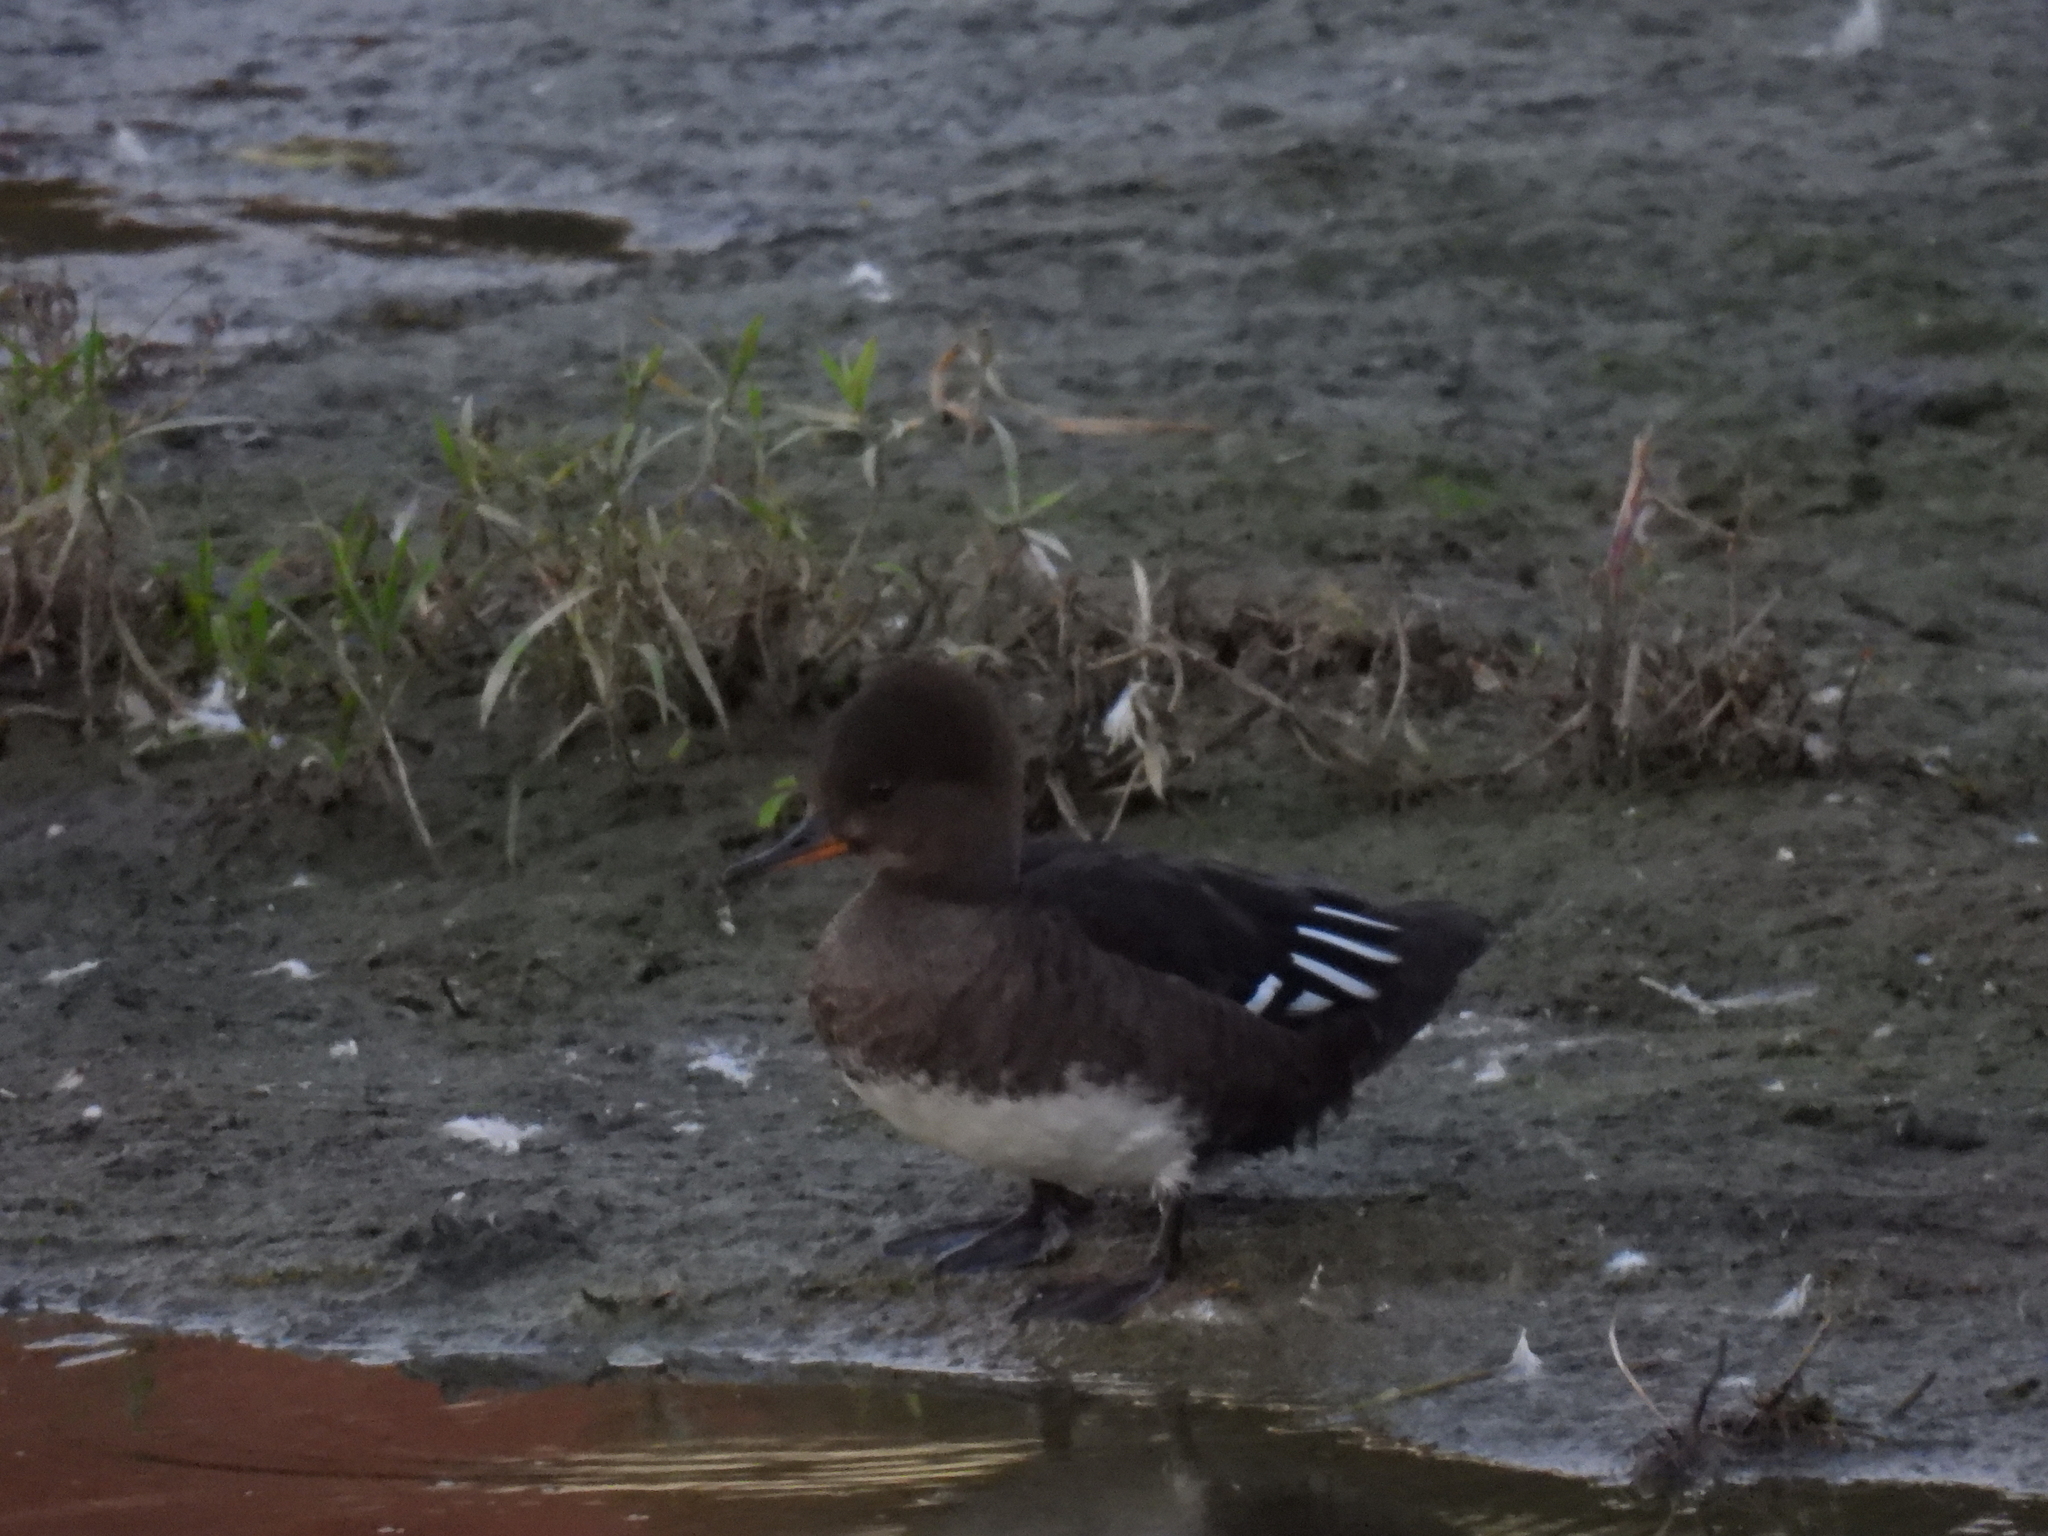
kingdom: Animalia
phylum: Chordata
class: Aves
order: Anseriformes
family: Anatidae
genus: Lophodytes
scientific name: Lophodytes cucullatus
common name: Hooded merganser
